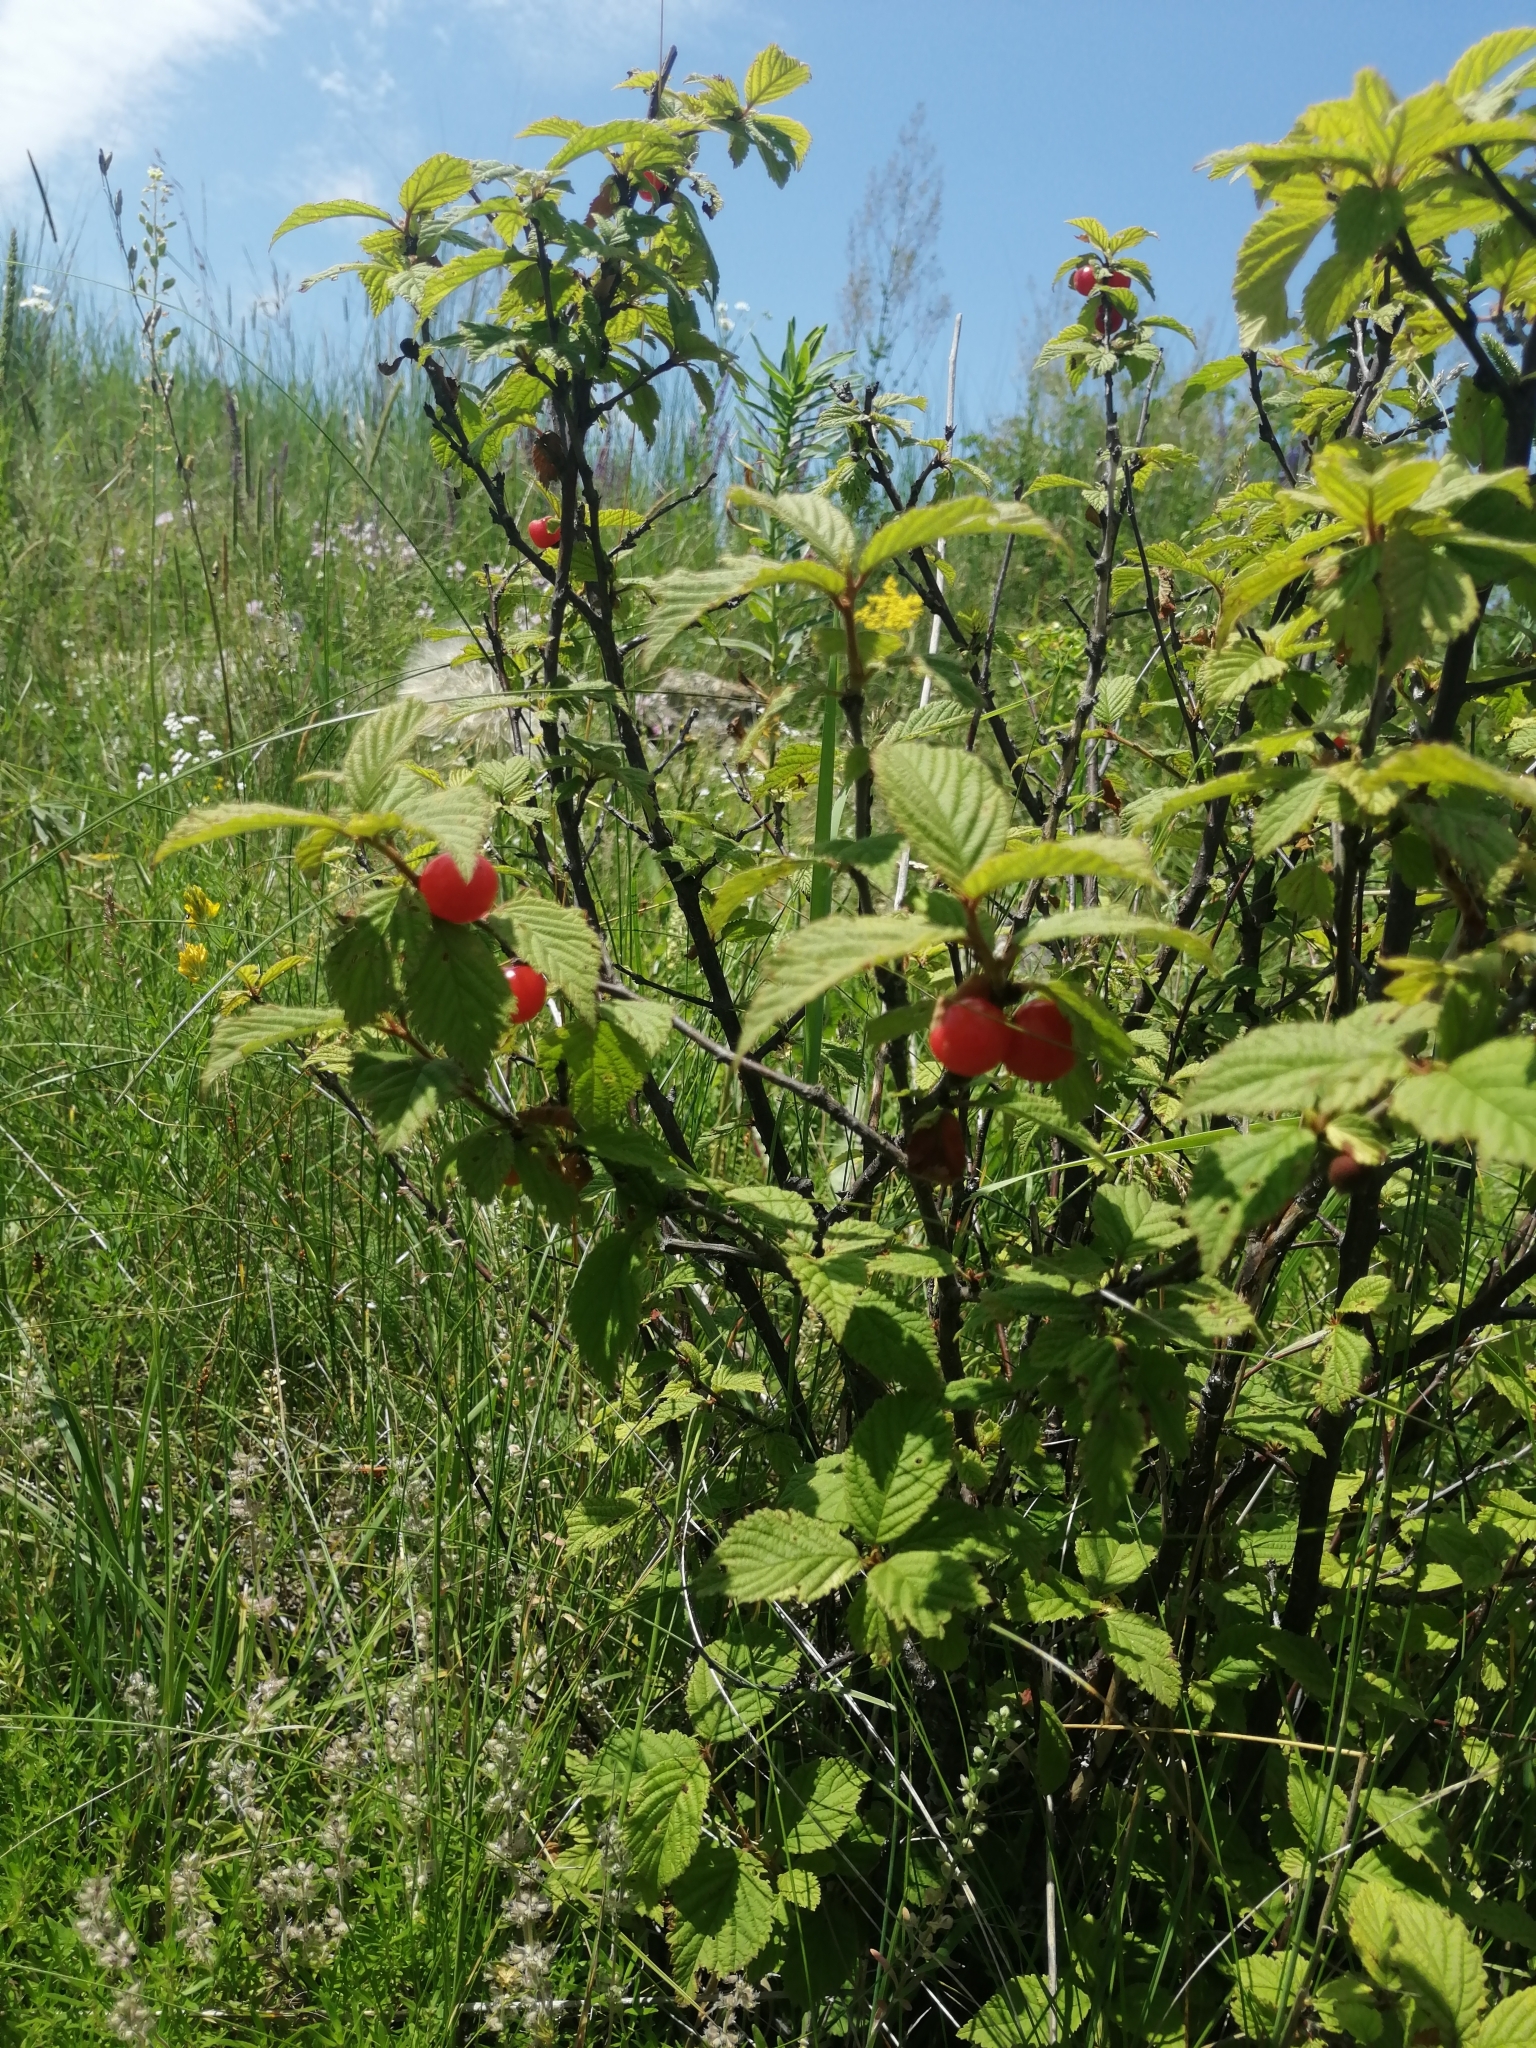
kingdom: Plantae
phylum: Tracheophyta
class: Magnoliopsida
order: Rosales
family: Rosaceae
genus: Prunus
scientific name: Prunus tomentosa
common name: Nanking cherry
